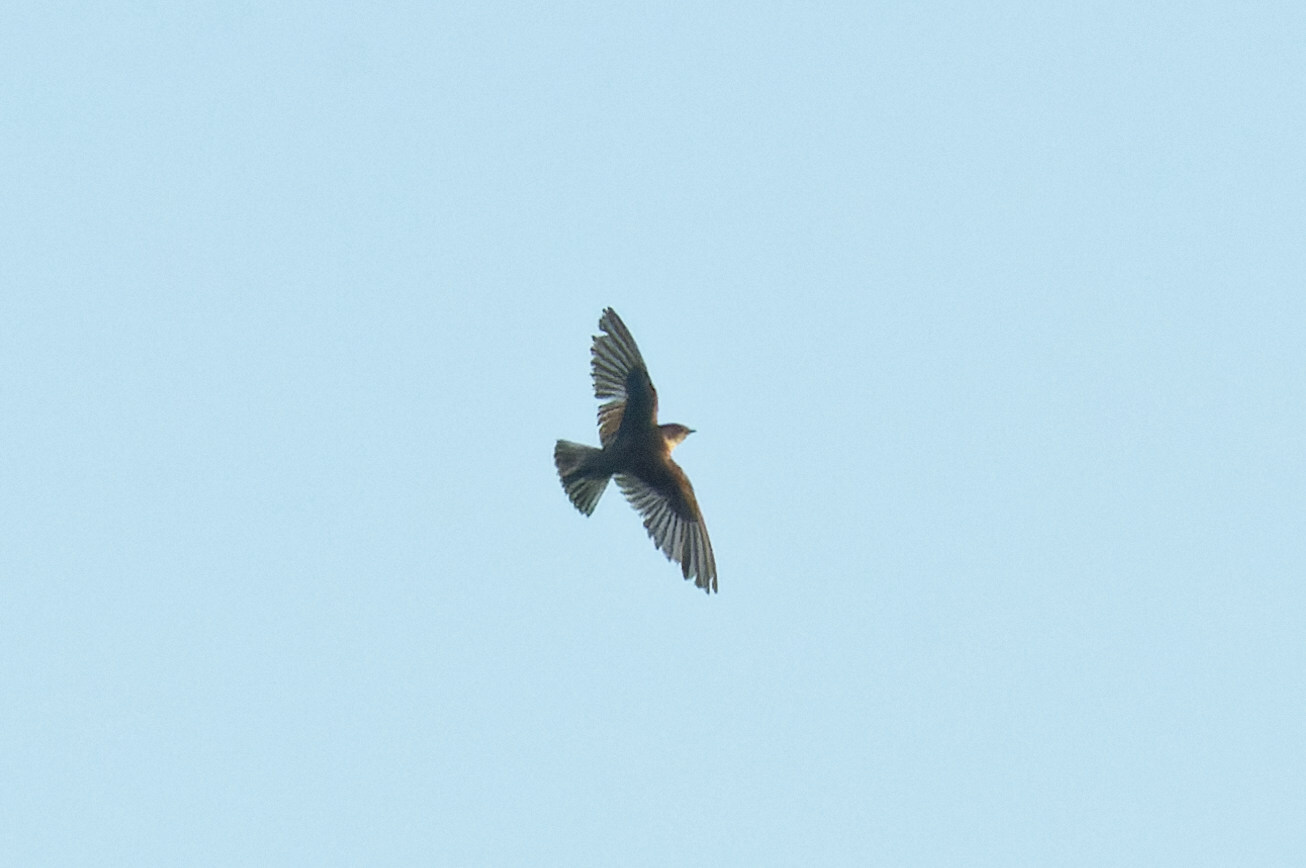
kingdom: Animalia
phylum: Chordata
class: Aves
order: Passeriformes
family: Hirundinidae
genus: Stelgidopteryx
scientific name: Stelgidopteryx serripennis
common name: Northern rough-winged swallow
